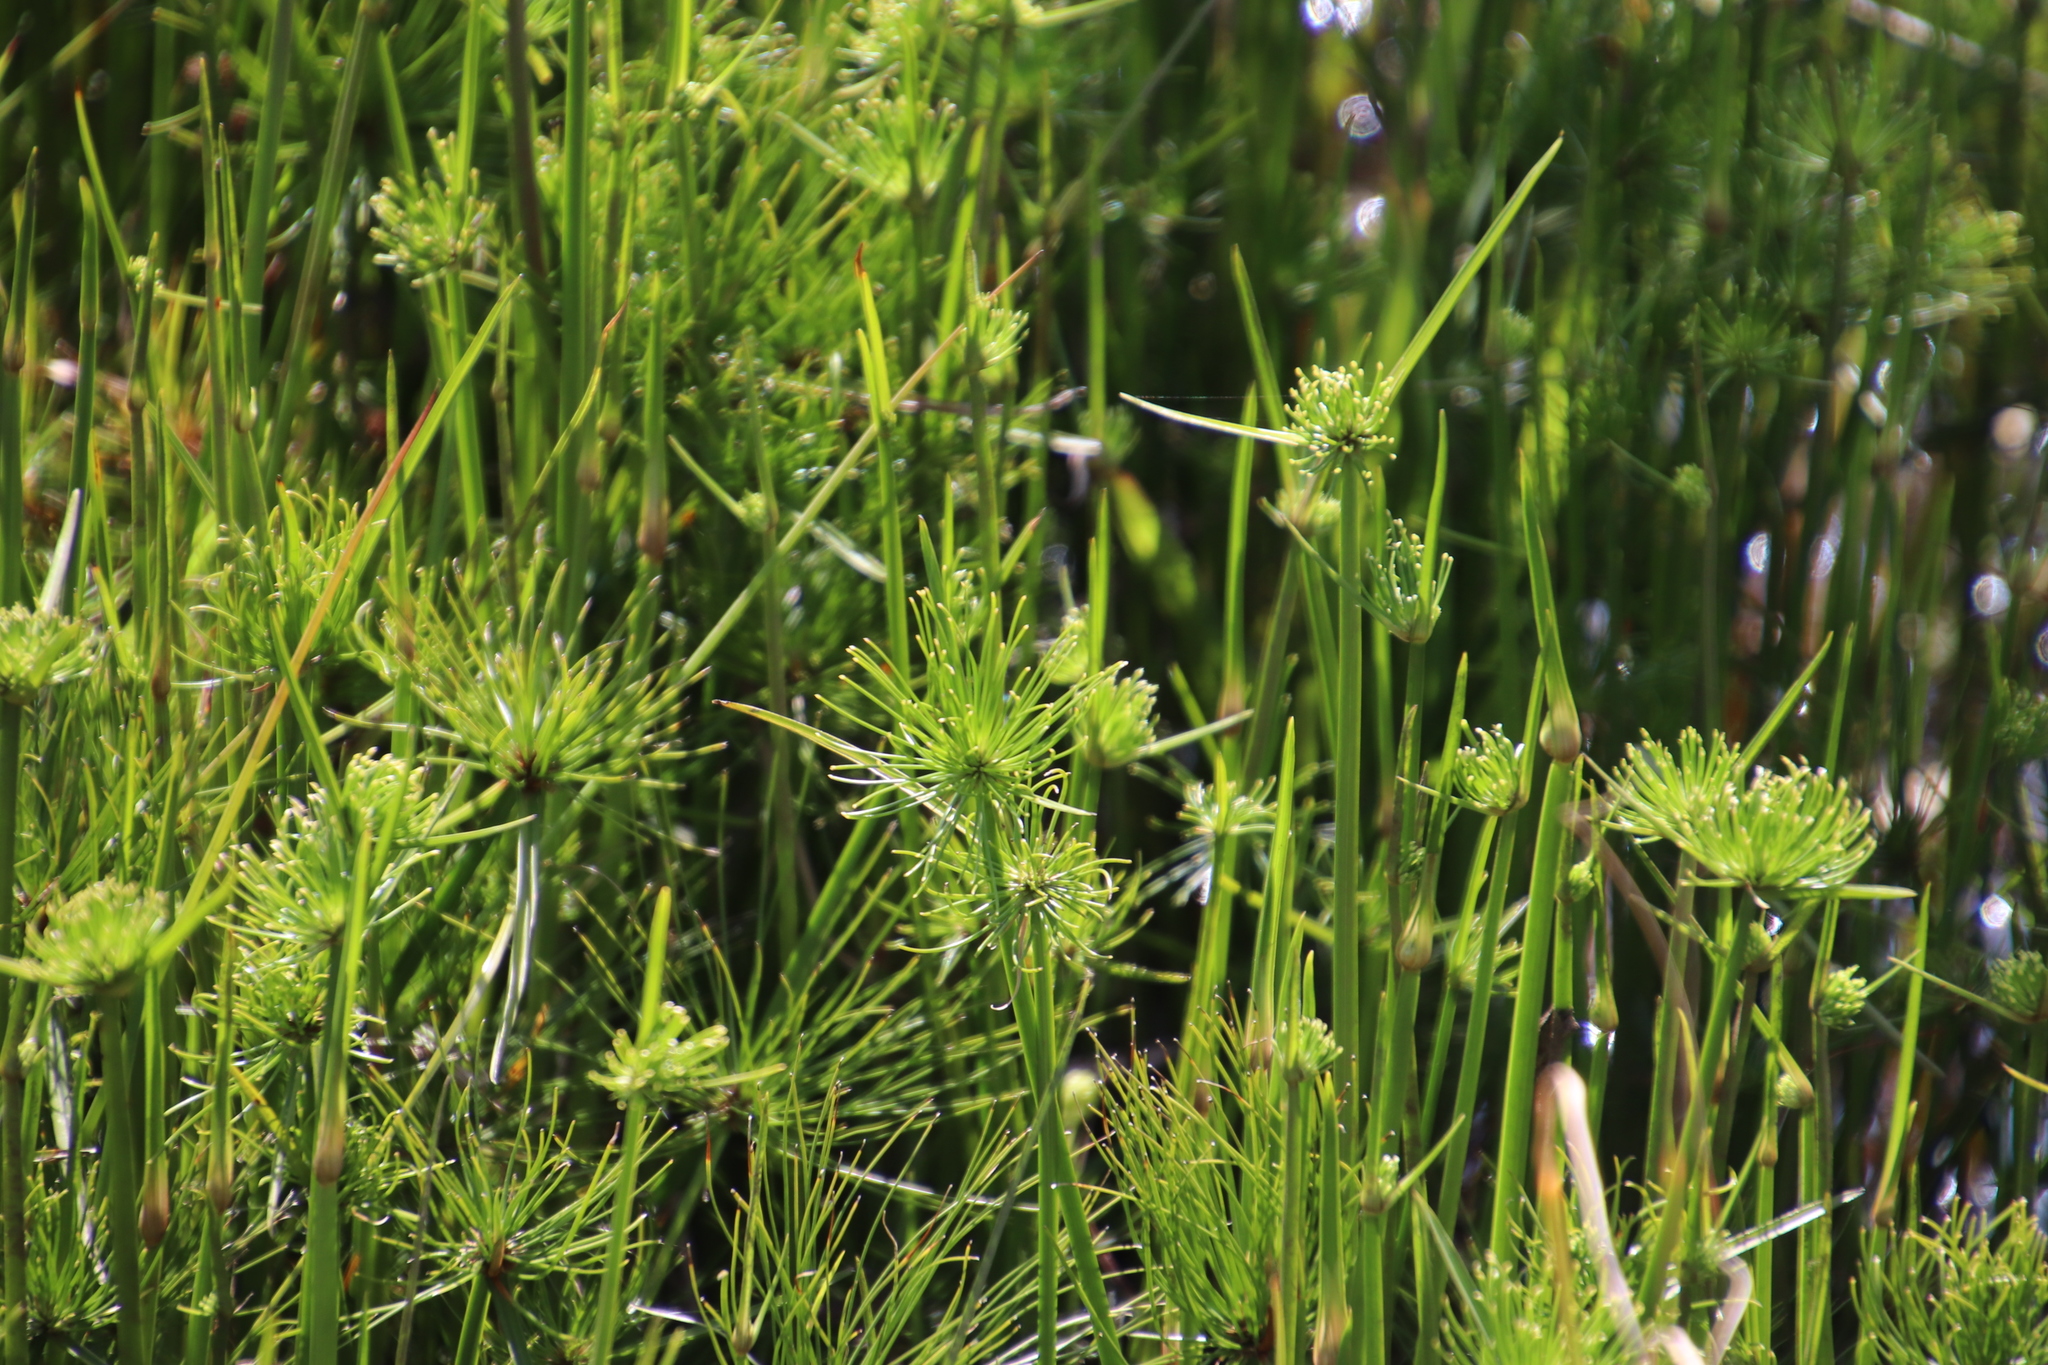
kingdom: Plantae
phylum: Tracheophyta
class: Liliopsida
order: Poales
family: Cyperaceae
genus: Cyperus
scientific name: Cyperus prolifer
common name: Miniature flatsedge
